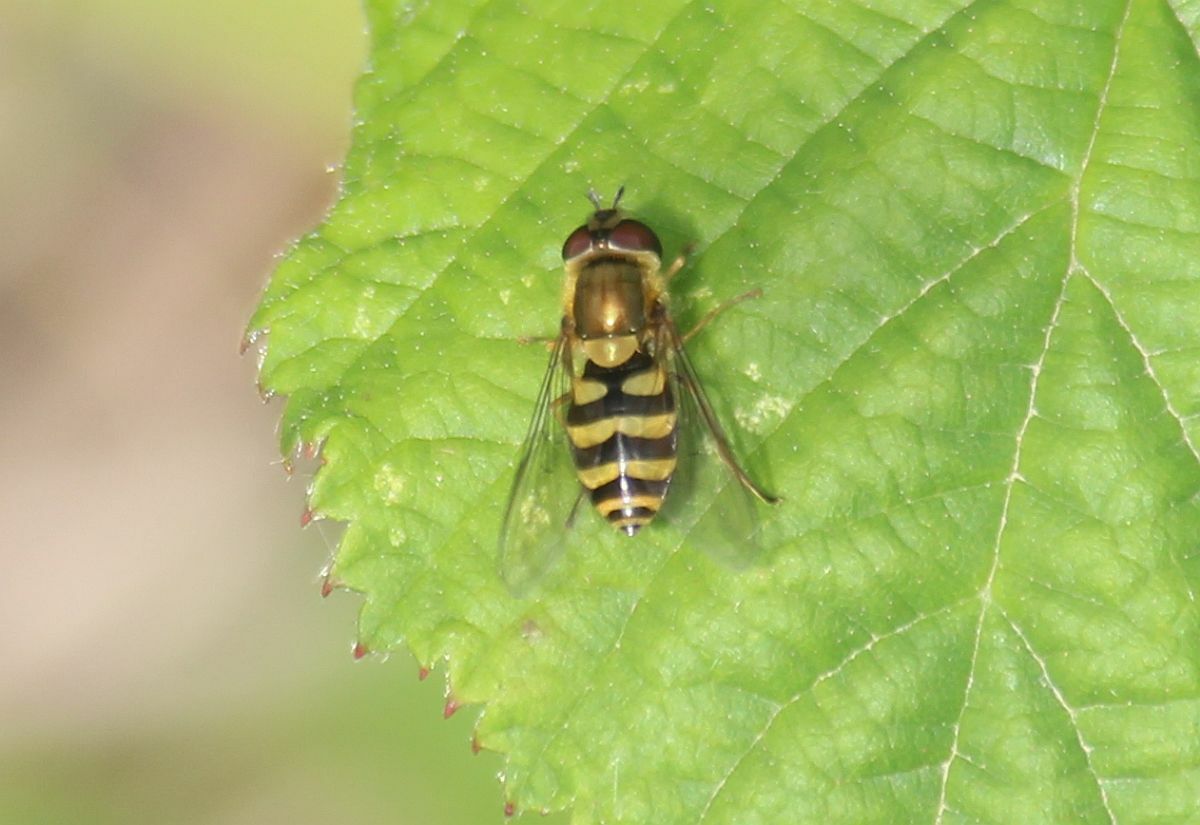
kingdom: Animalia
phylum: Arthropoda
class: Insecta
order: Diptera
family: Syrphidae
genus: Syrphus
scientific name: Syrphus
